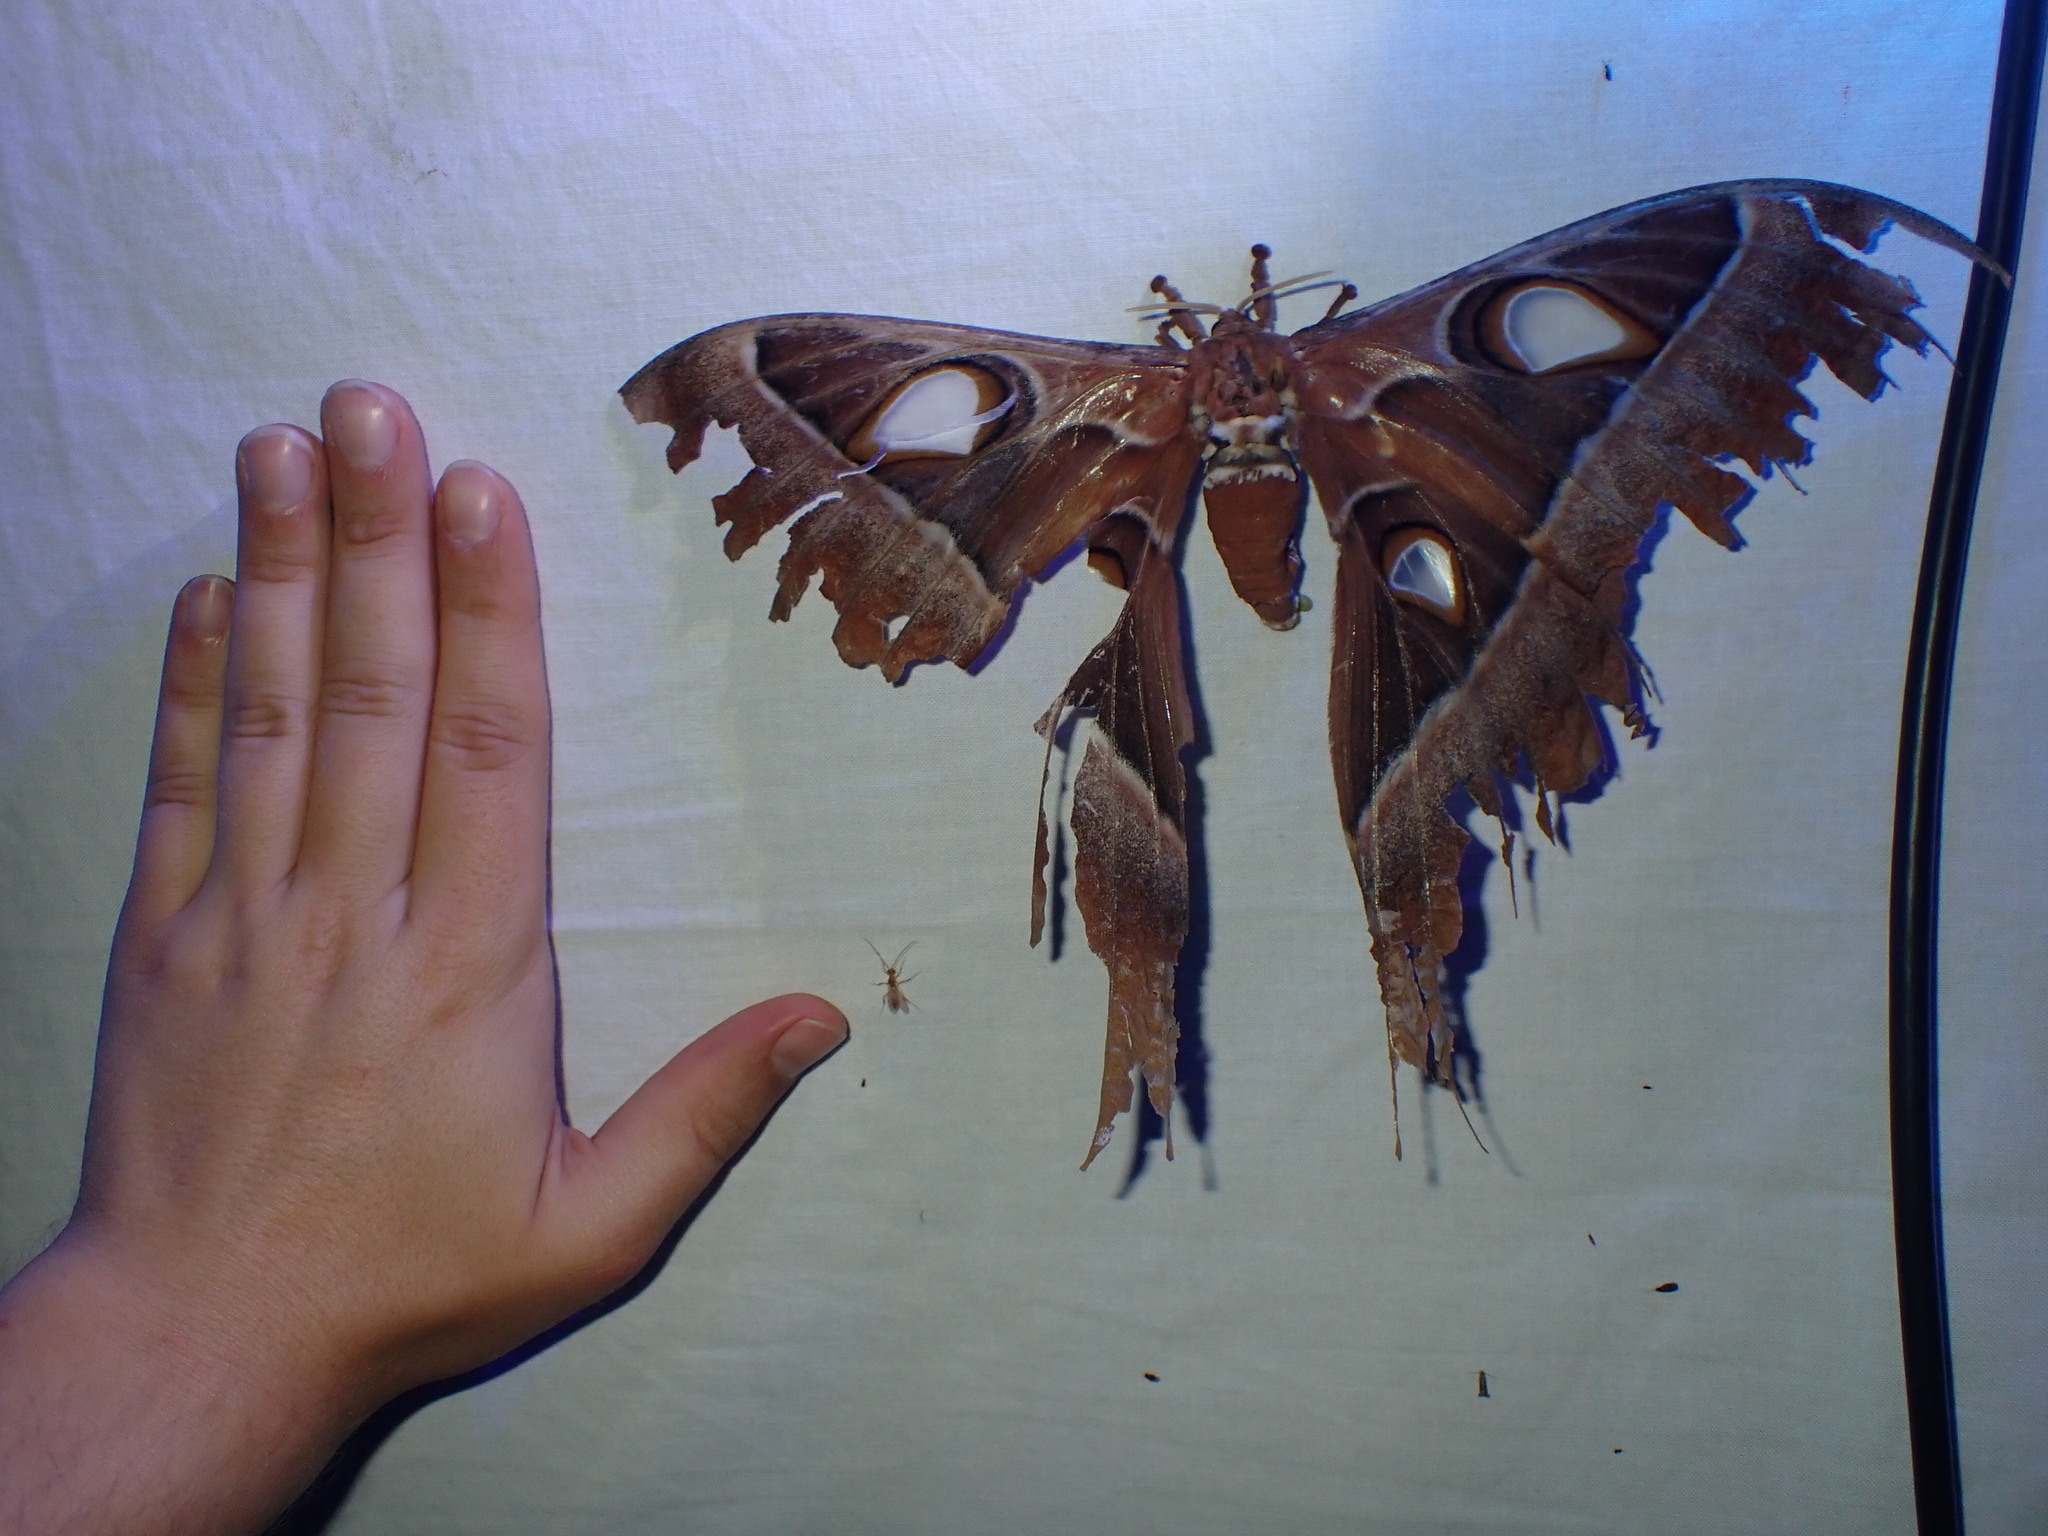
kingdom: Animalia
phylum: Arthropoda
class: Insecta
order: Lepidoptera
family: Saturniidae
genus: Coscinocera
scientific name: Coscinocera hercules
